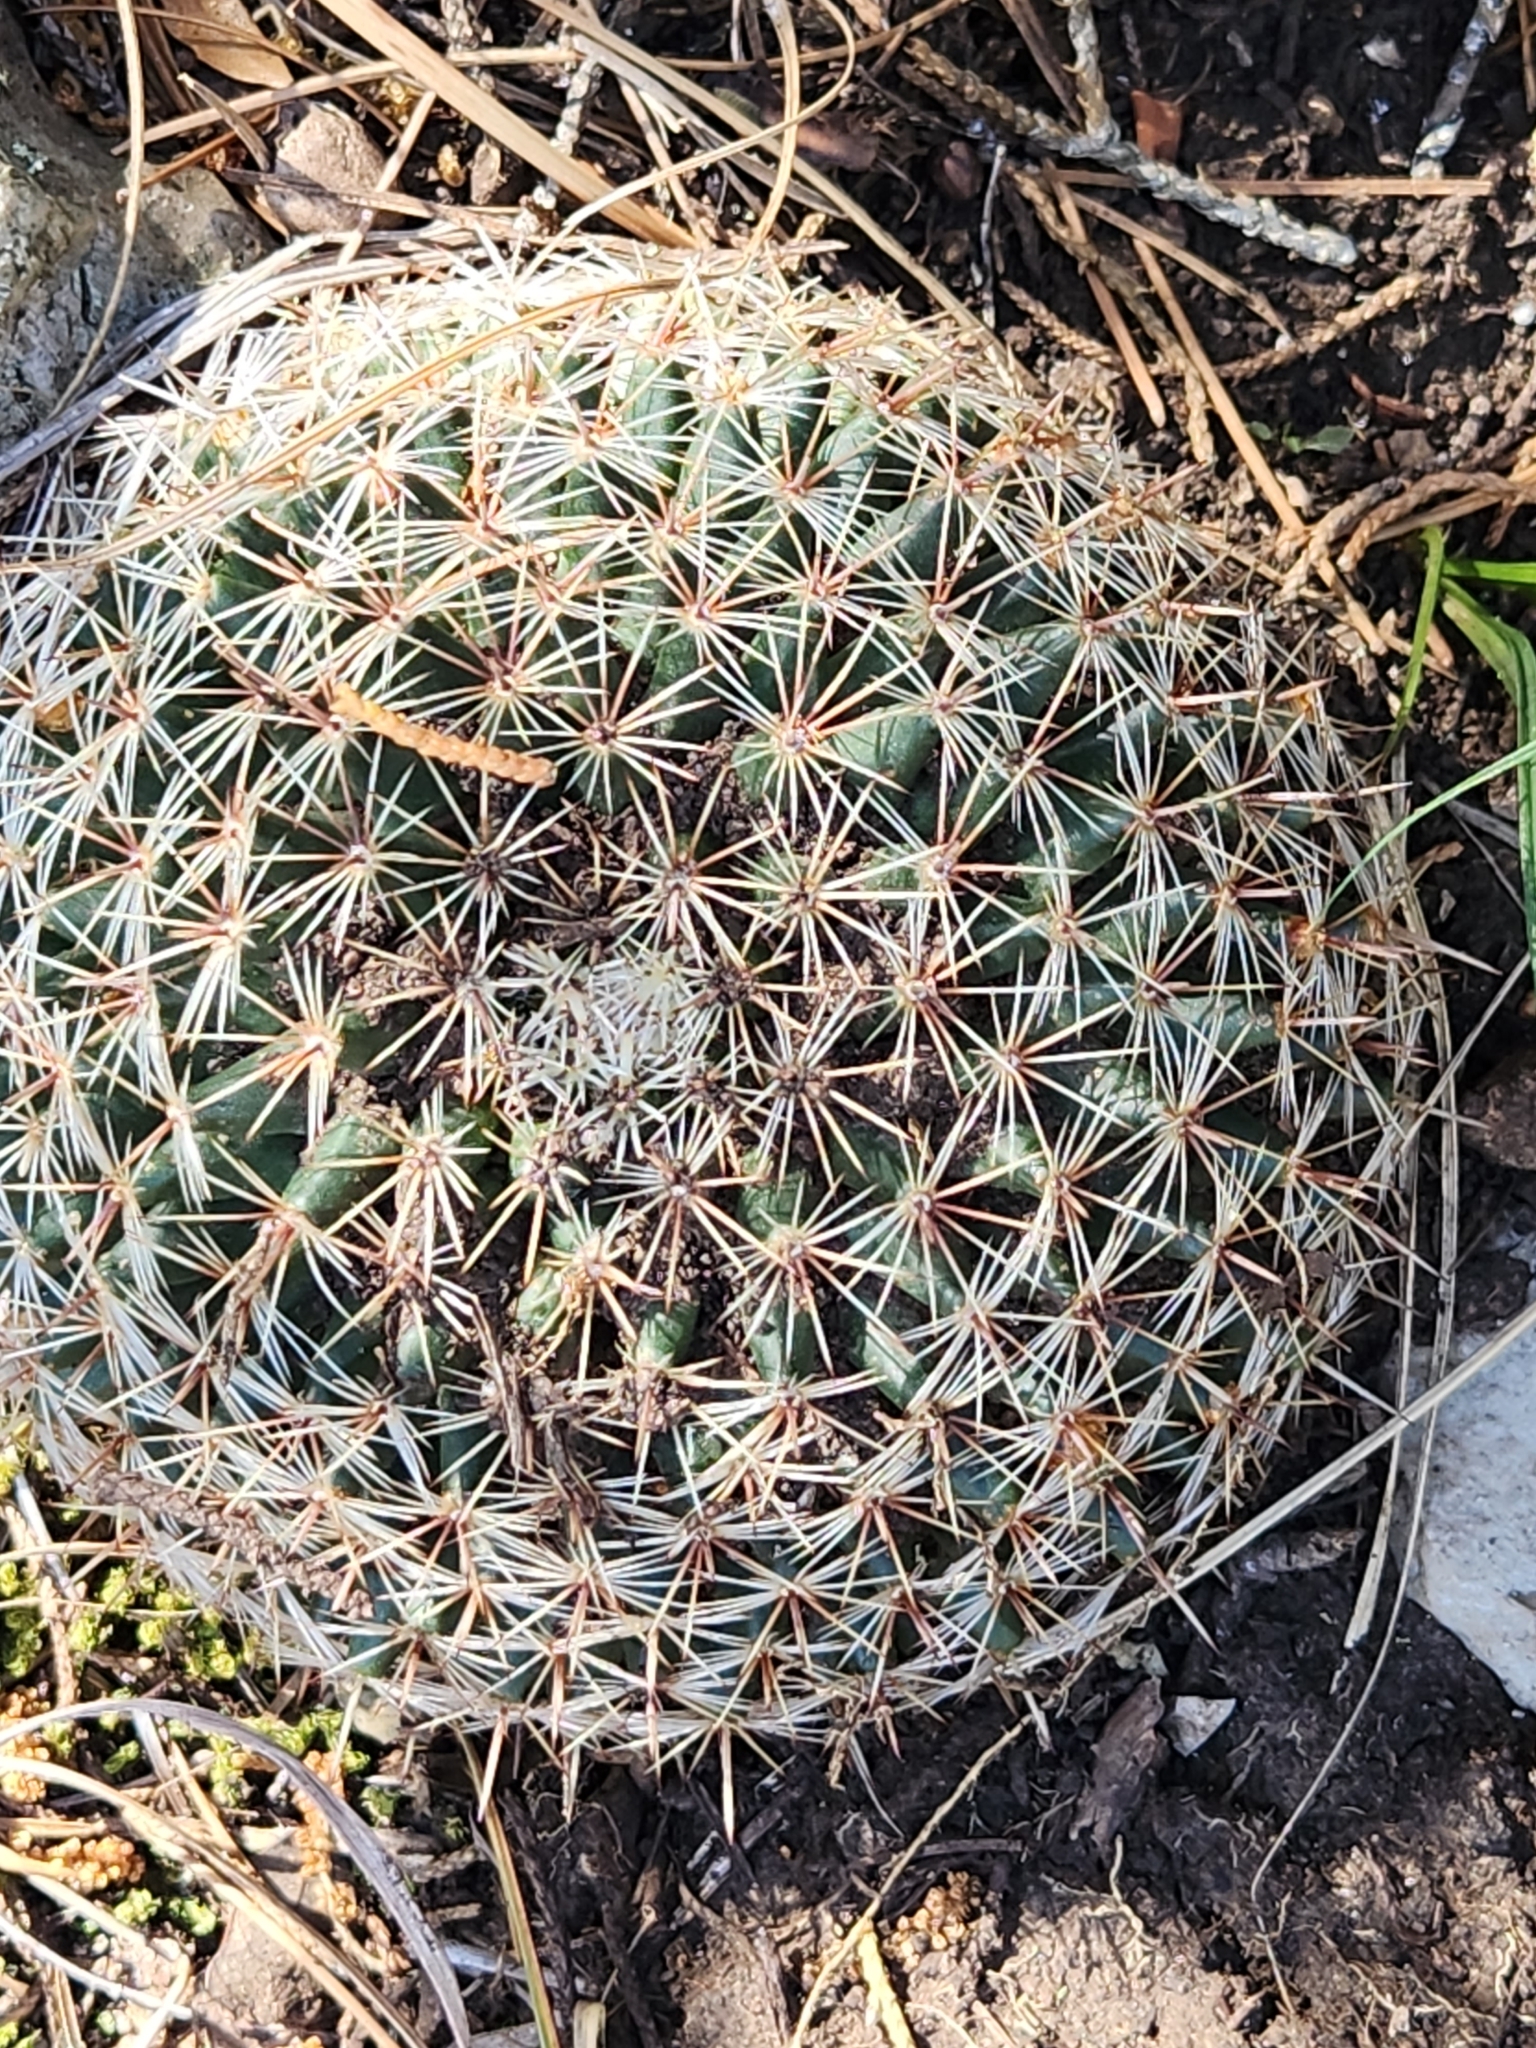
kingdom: Plantae
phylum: Tracheophyta
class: Magnoliopsida
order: Caryophyllales
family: Cactaceae
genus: Mammillaria
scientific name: Mammillaria heyderi
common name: Little nipple cactus
